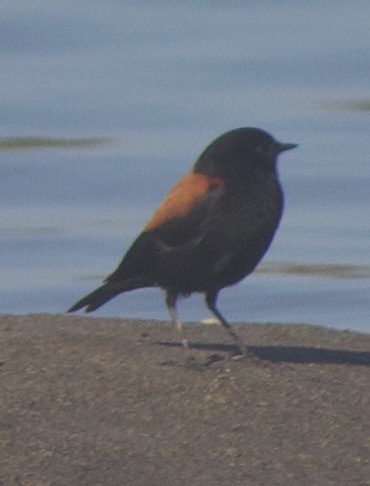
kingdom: Animalia
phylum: Chordata
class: Aves
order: Passeriformes
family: Tyrannidae
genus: Lessonia
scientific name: Lessonia rufa
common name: Austral negrito
